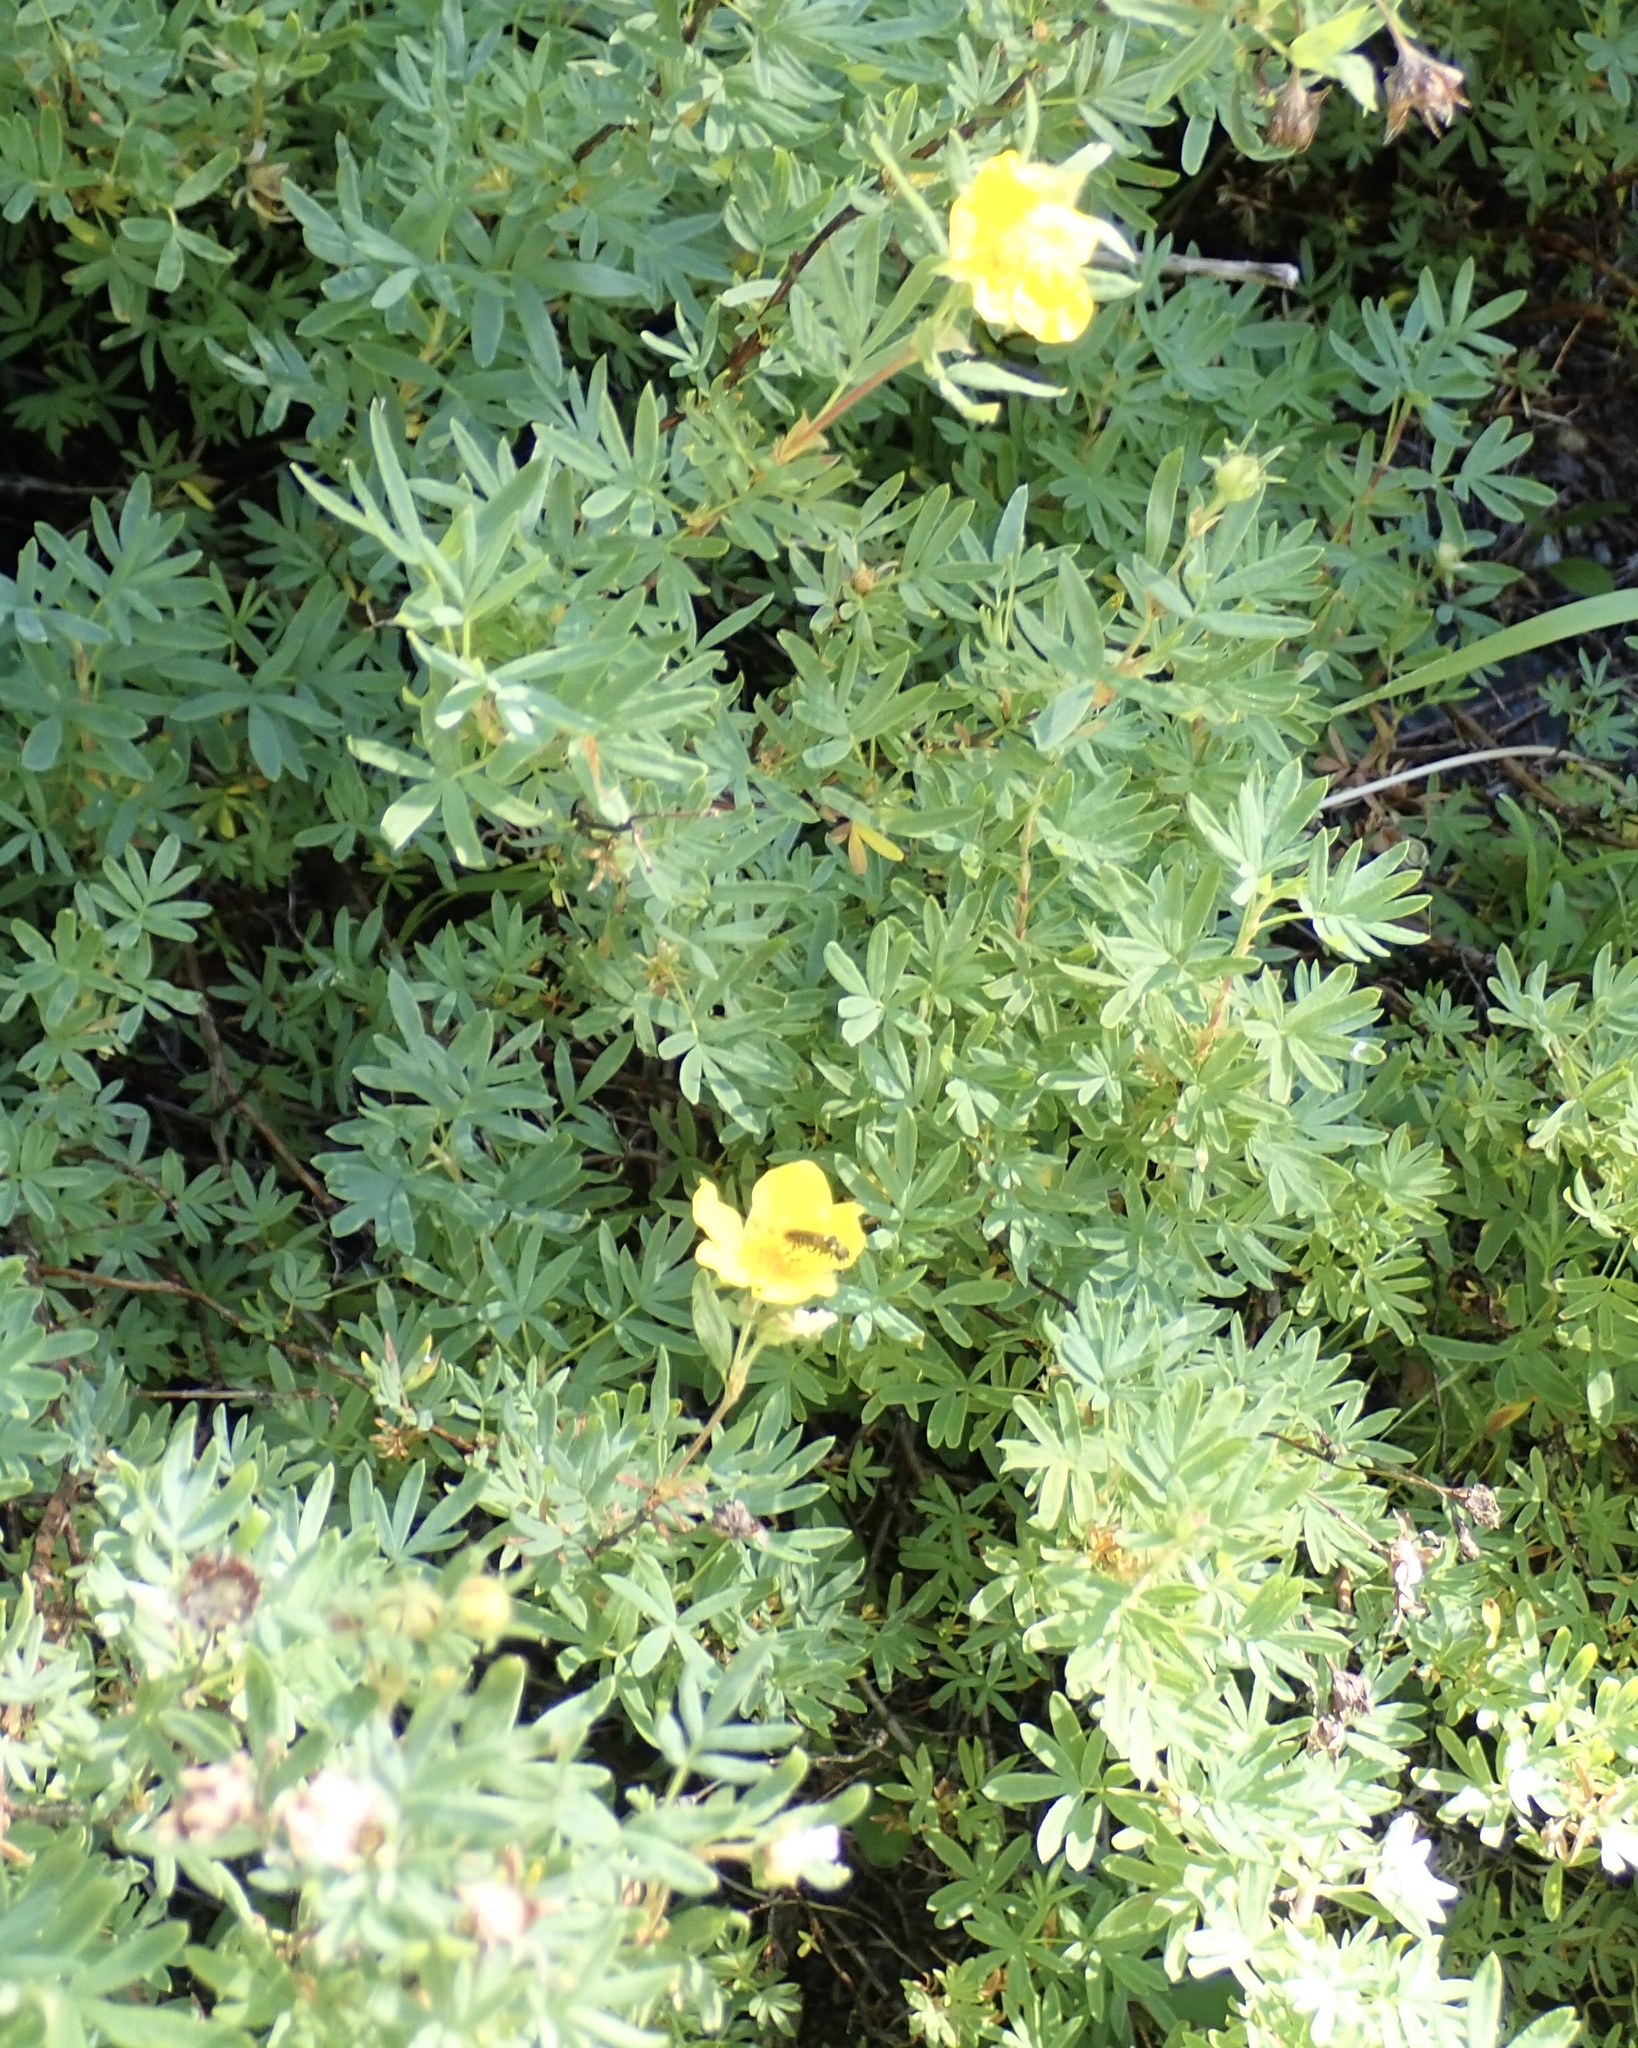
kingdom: Plantae
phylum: Tracheophyta
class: Magnoliopsida
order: Rosales
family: Rosaceae
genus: Dasiphora
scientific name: Dasiphora fruticosa
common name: Shrubby cinquefoil
